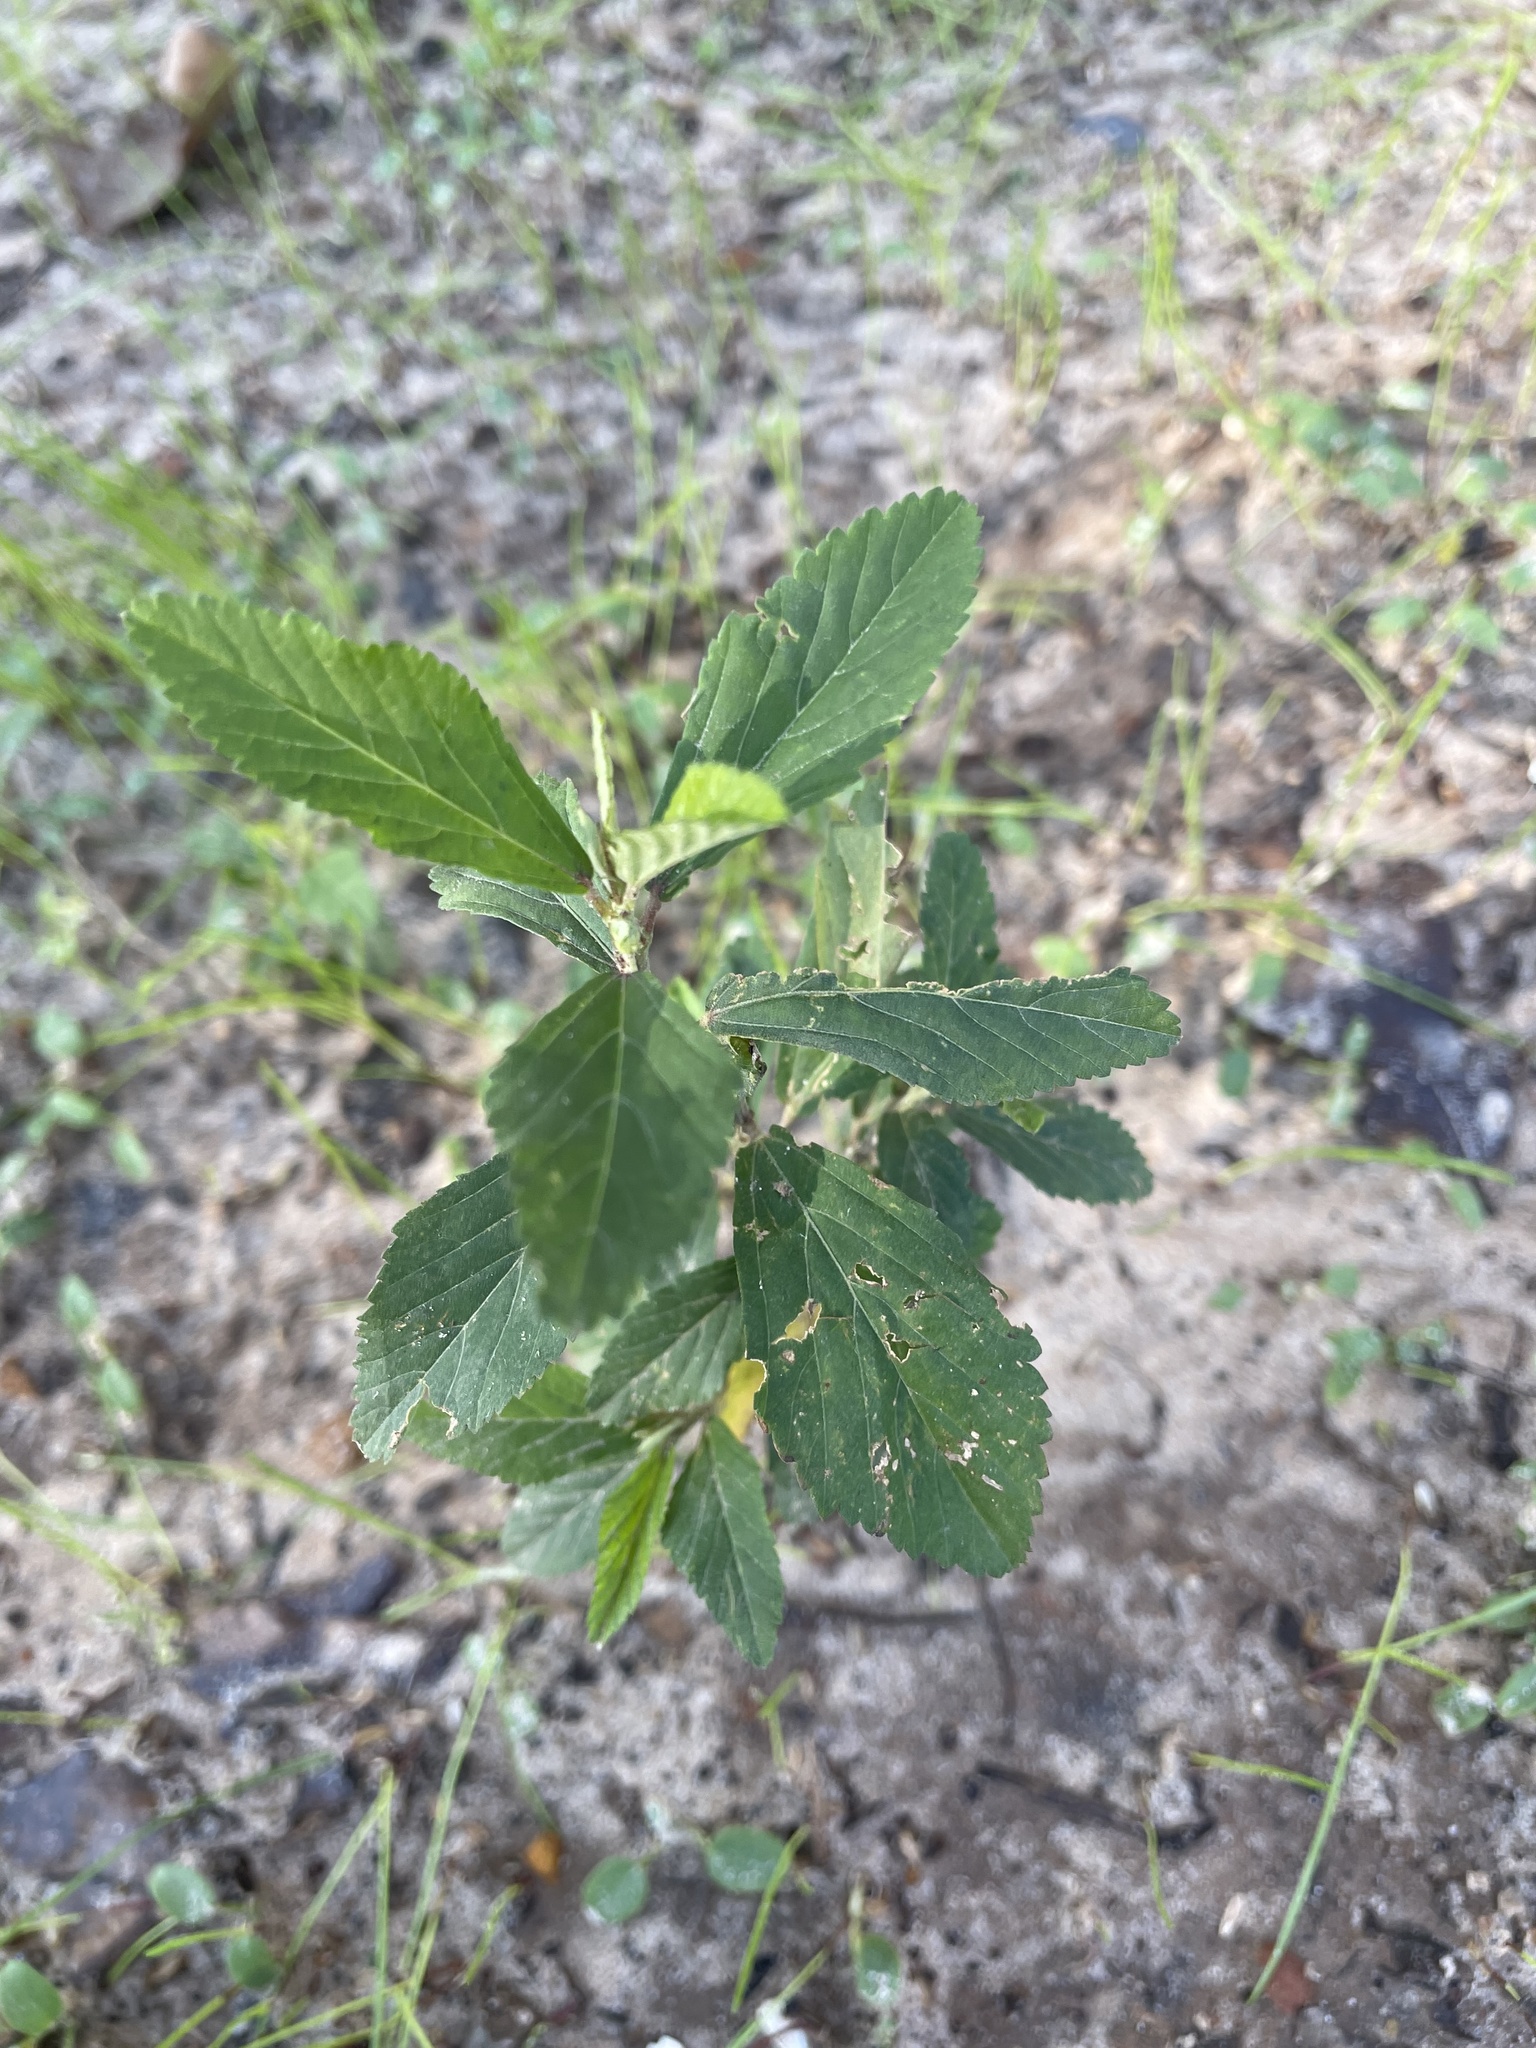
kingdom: Plantae
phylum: Tracheophyta
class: Magnoliopsida
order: Malvales
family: Malvaceae
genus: Sida
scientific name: Sida rhombifolia
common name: Queensland-hemp
